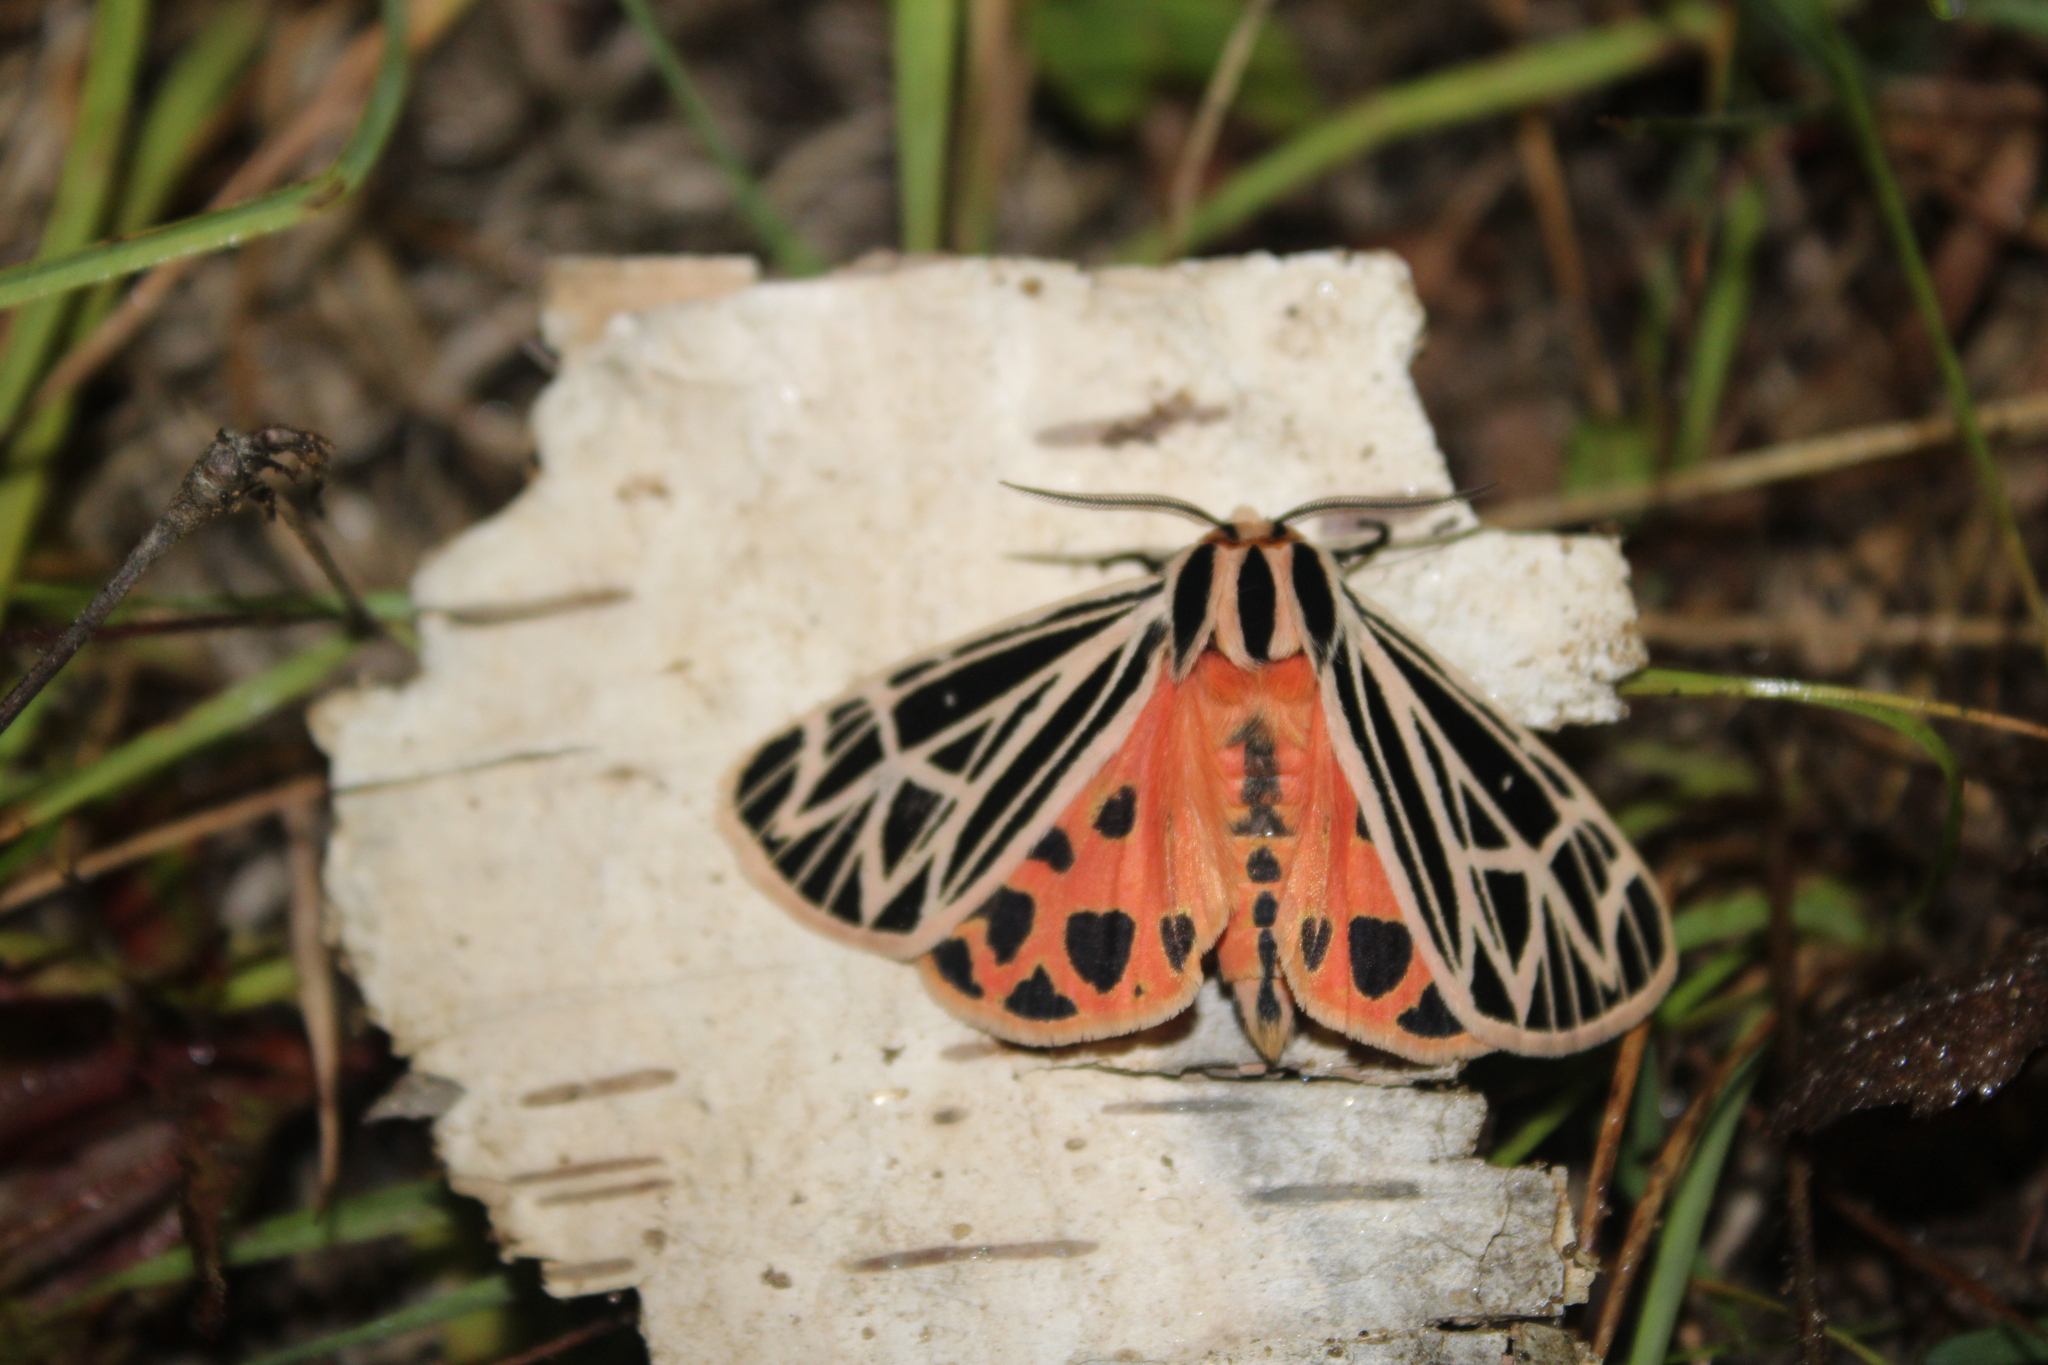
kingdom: Animalia
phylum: Arthropoda
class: Insecta
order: Lepidoptera
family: Erebidae
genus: Grammia
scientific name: Grammia virgo
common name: Virgin tiger moth
